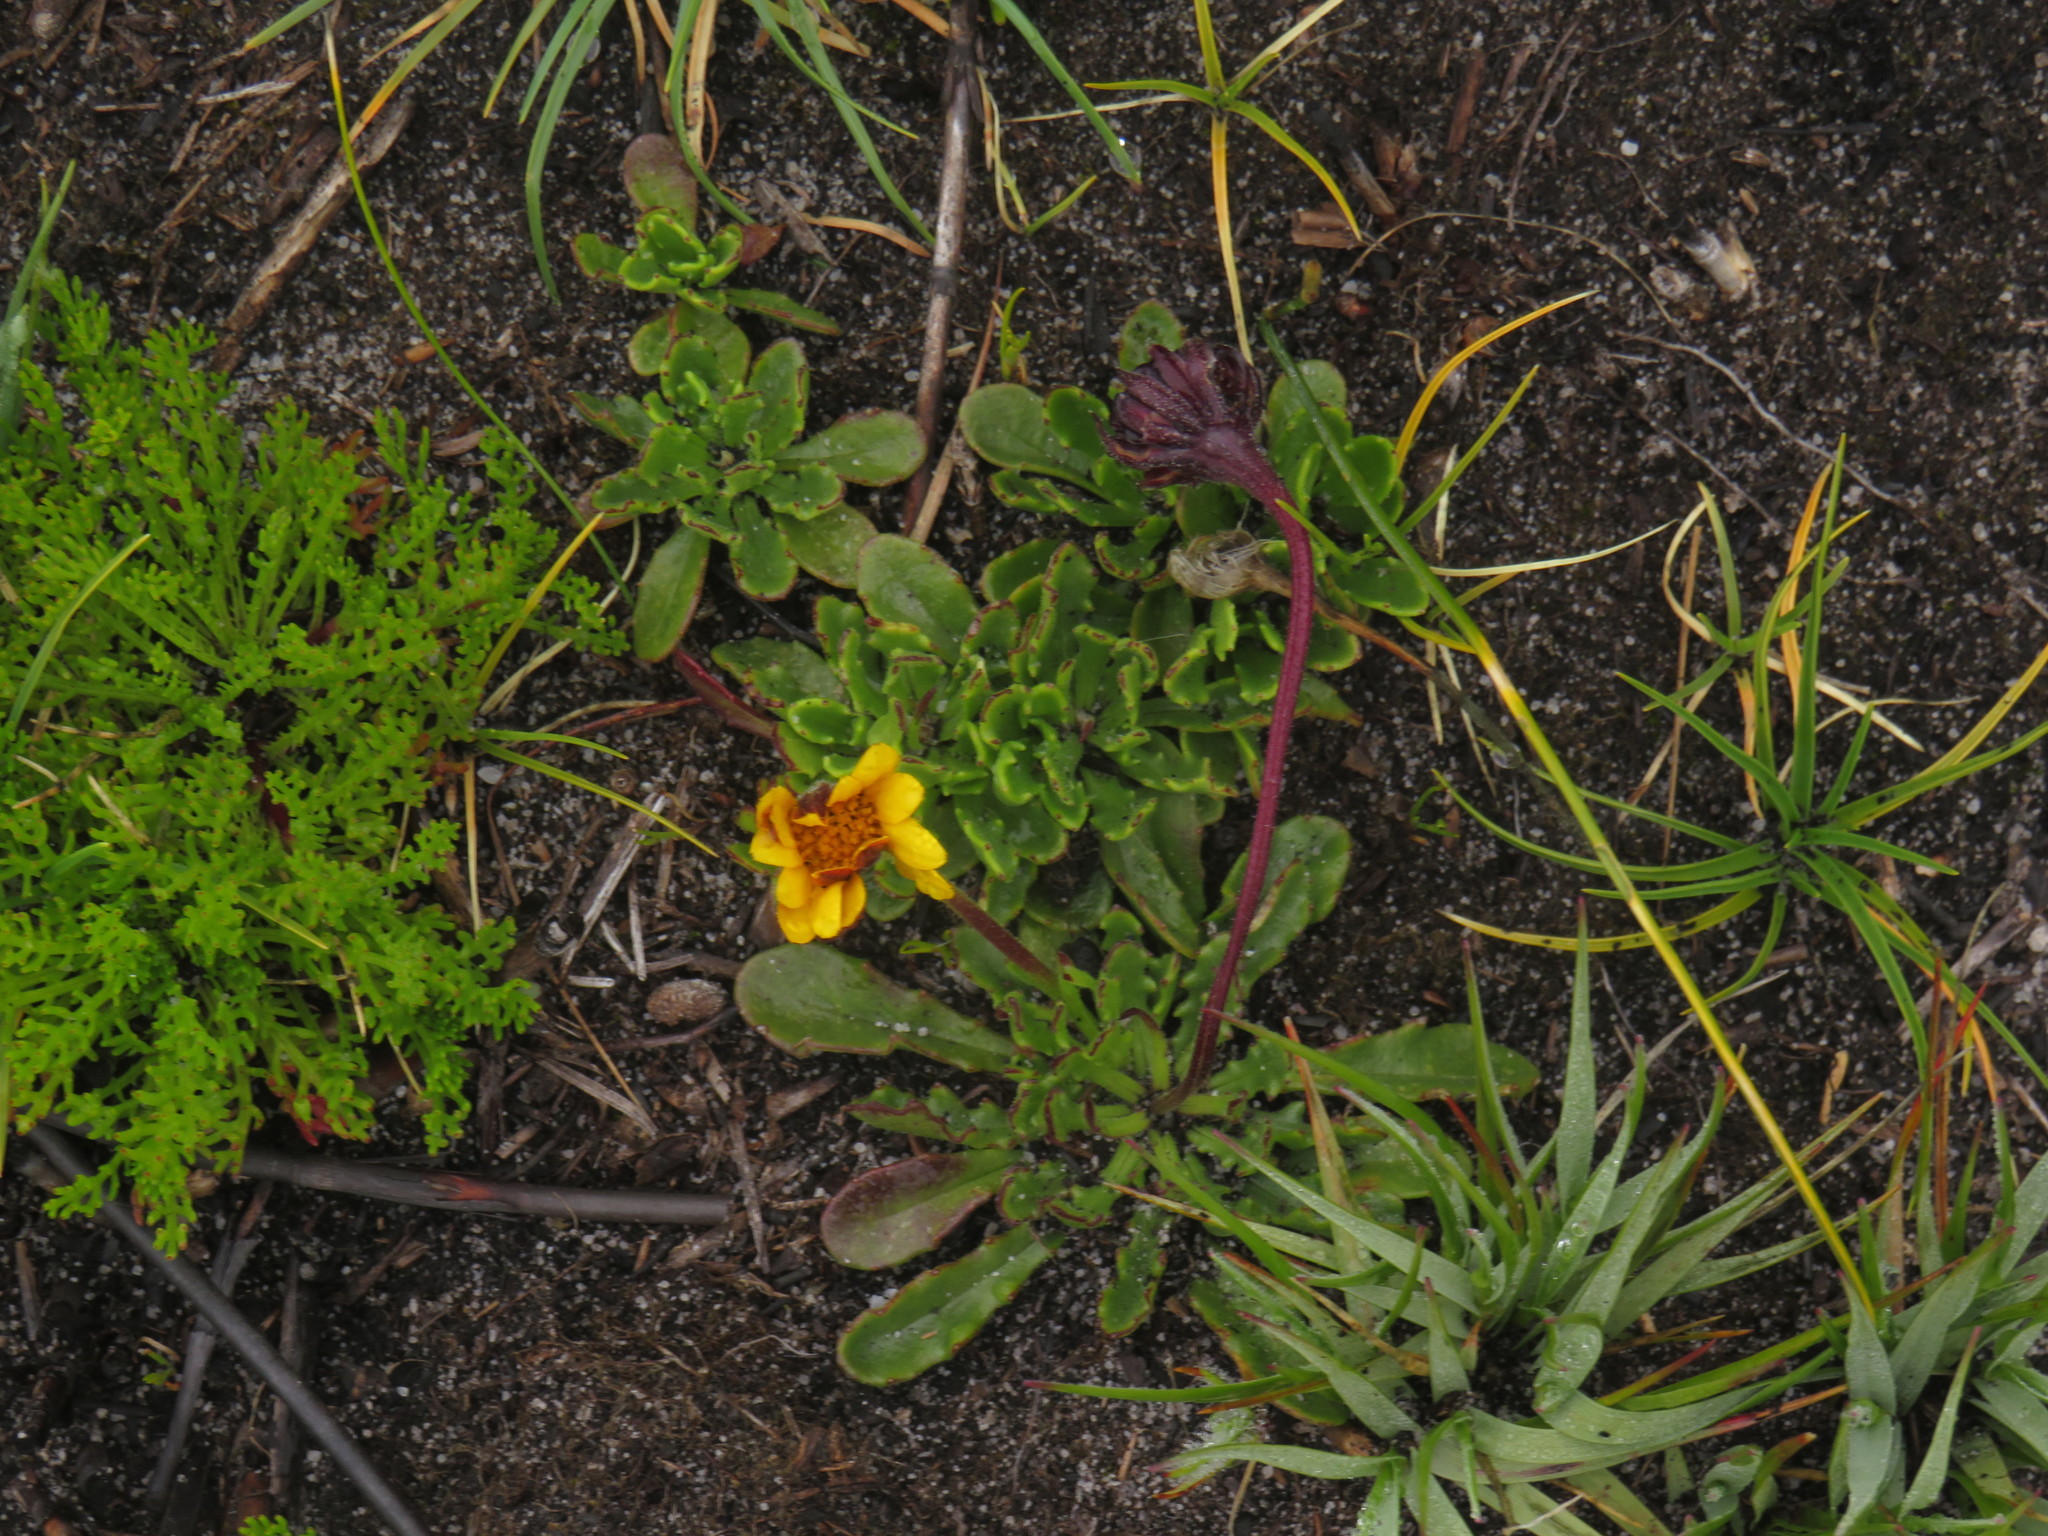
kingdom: Plantae
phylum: Tracheophyta
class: Magnoliopsida
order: Asterales
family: Asteraceae
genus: Dimorphotheca
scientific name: Dimorphotheca montana
